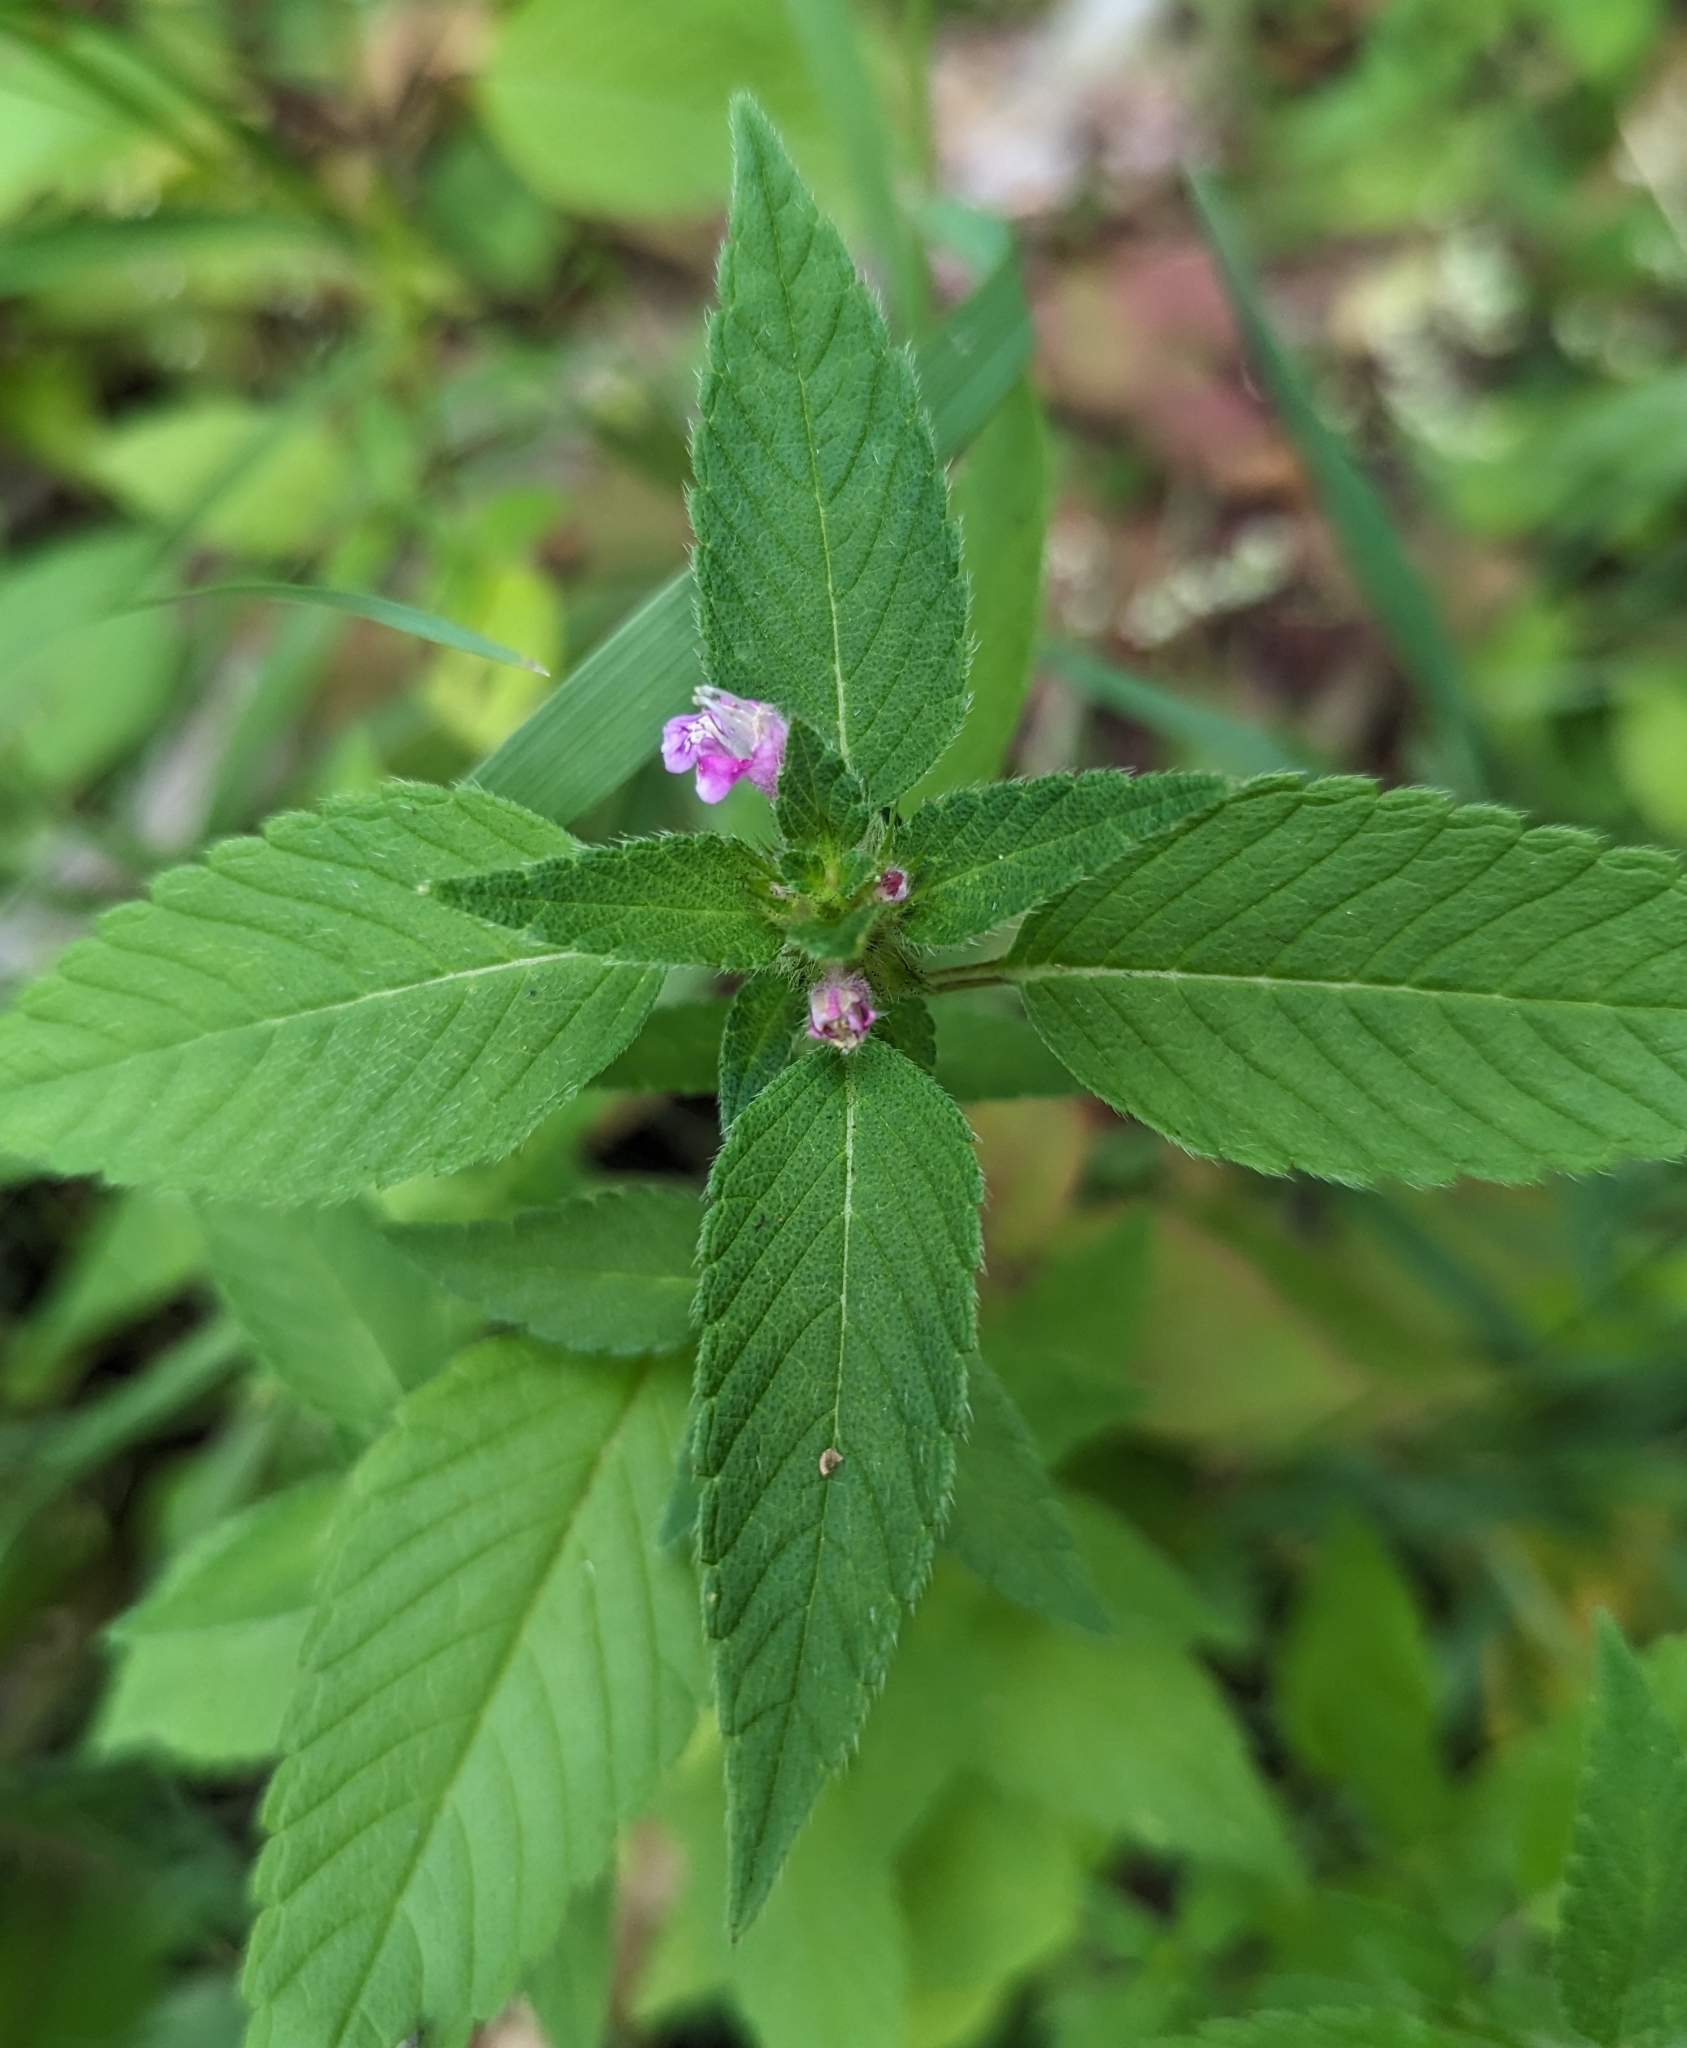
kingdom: Plantae
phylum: Tracheophyta
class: Magnoliopsida
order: Lamiales
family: Lamiaceae
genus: Galeopsis
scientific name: Galeopsis tetrahit
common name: Common hemp-nettle
